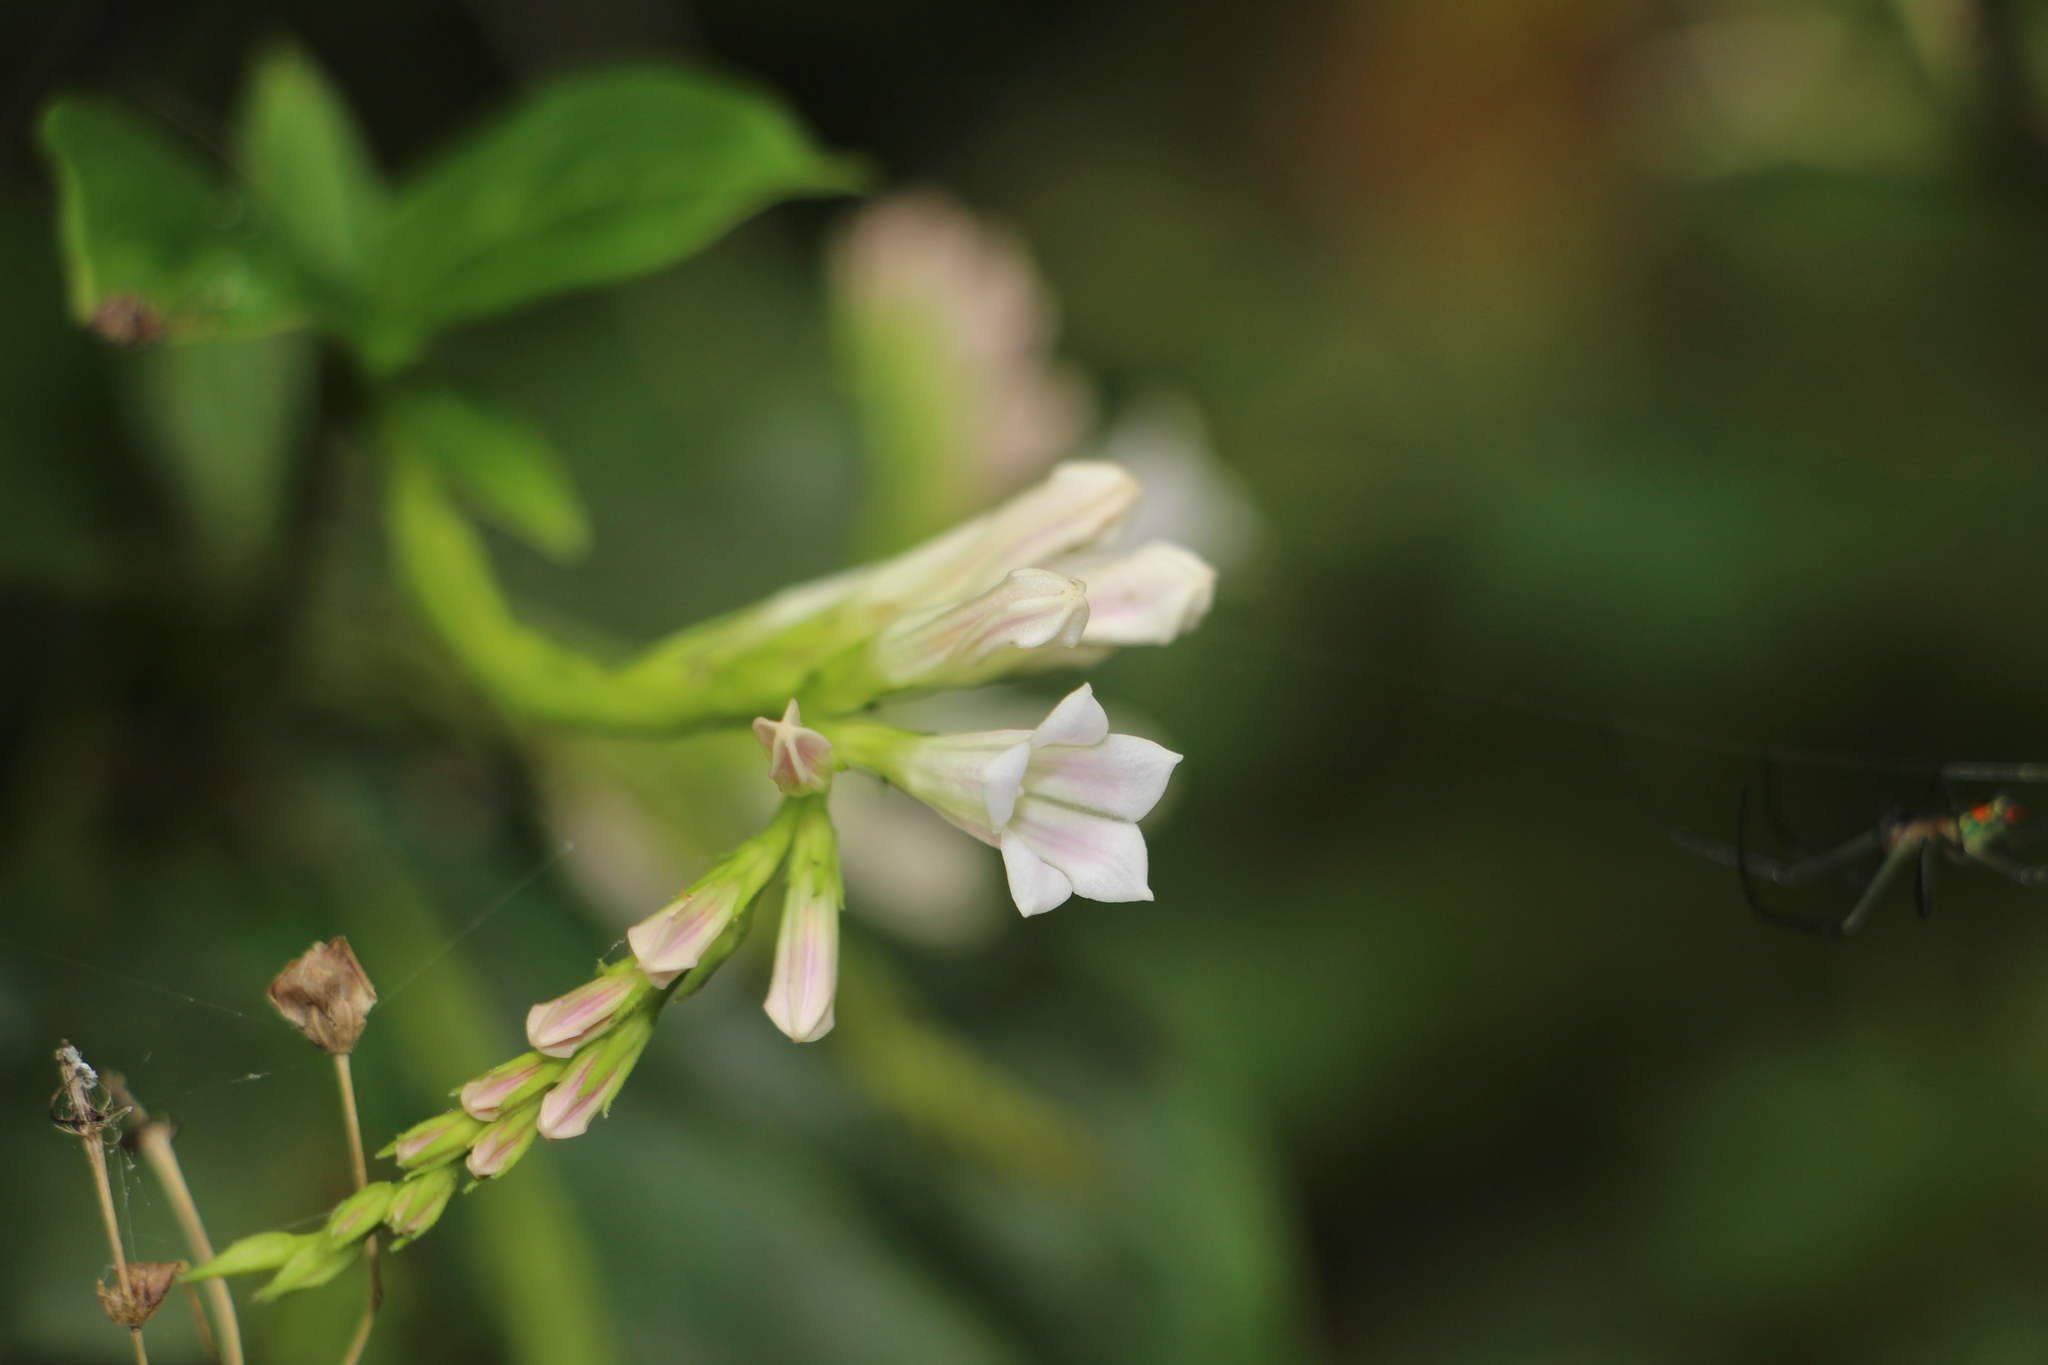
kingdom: Plantae
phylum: Tracheophyta
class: Magnoliopsida
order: Gentianales
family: Loganiaceae
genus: Spigelia
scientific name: Spigelia hamellioides
